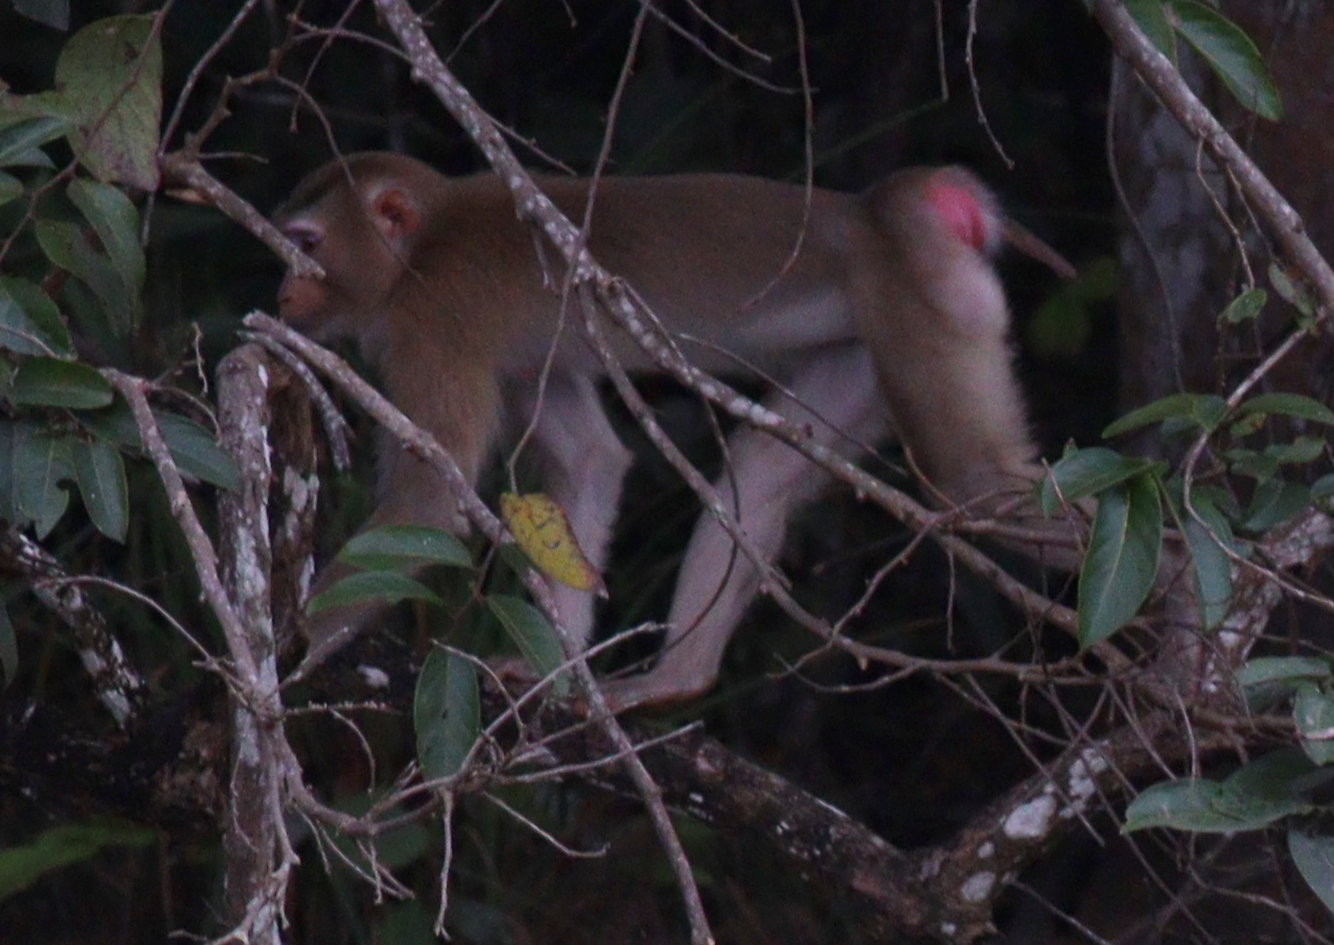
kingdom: Animalia
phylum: Chordata
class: Mammalia
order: Primates
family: Cercopithecidae
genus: Macaca
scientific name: Macaca leonina
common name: Northern pig-tailed macaque
